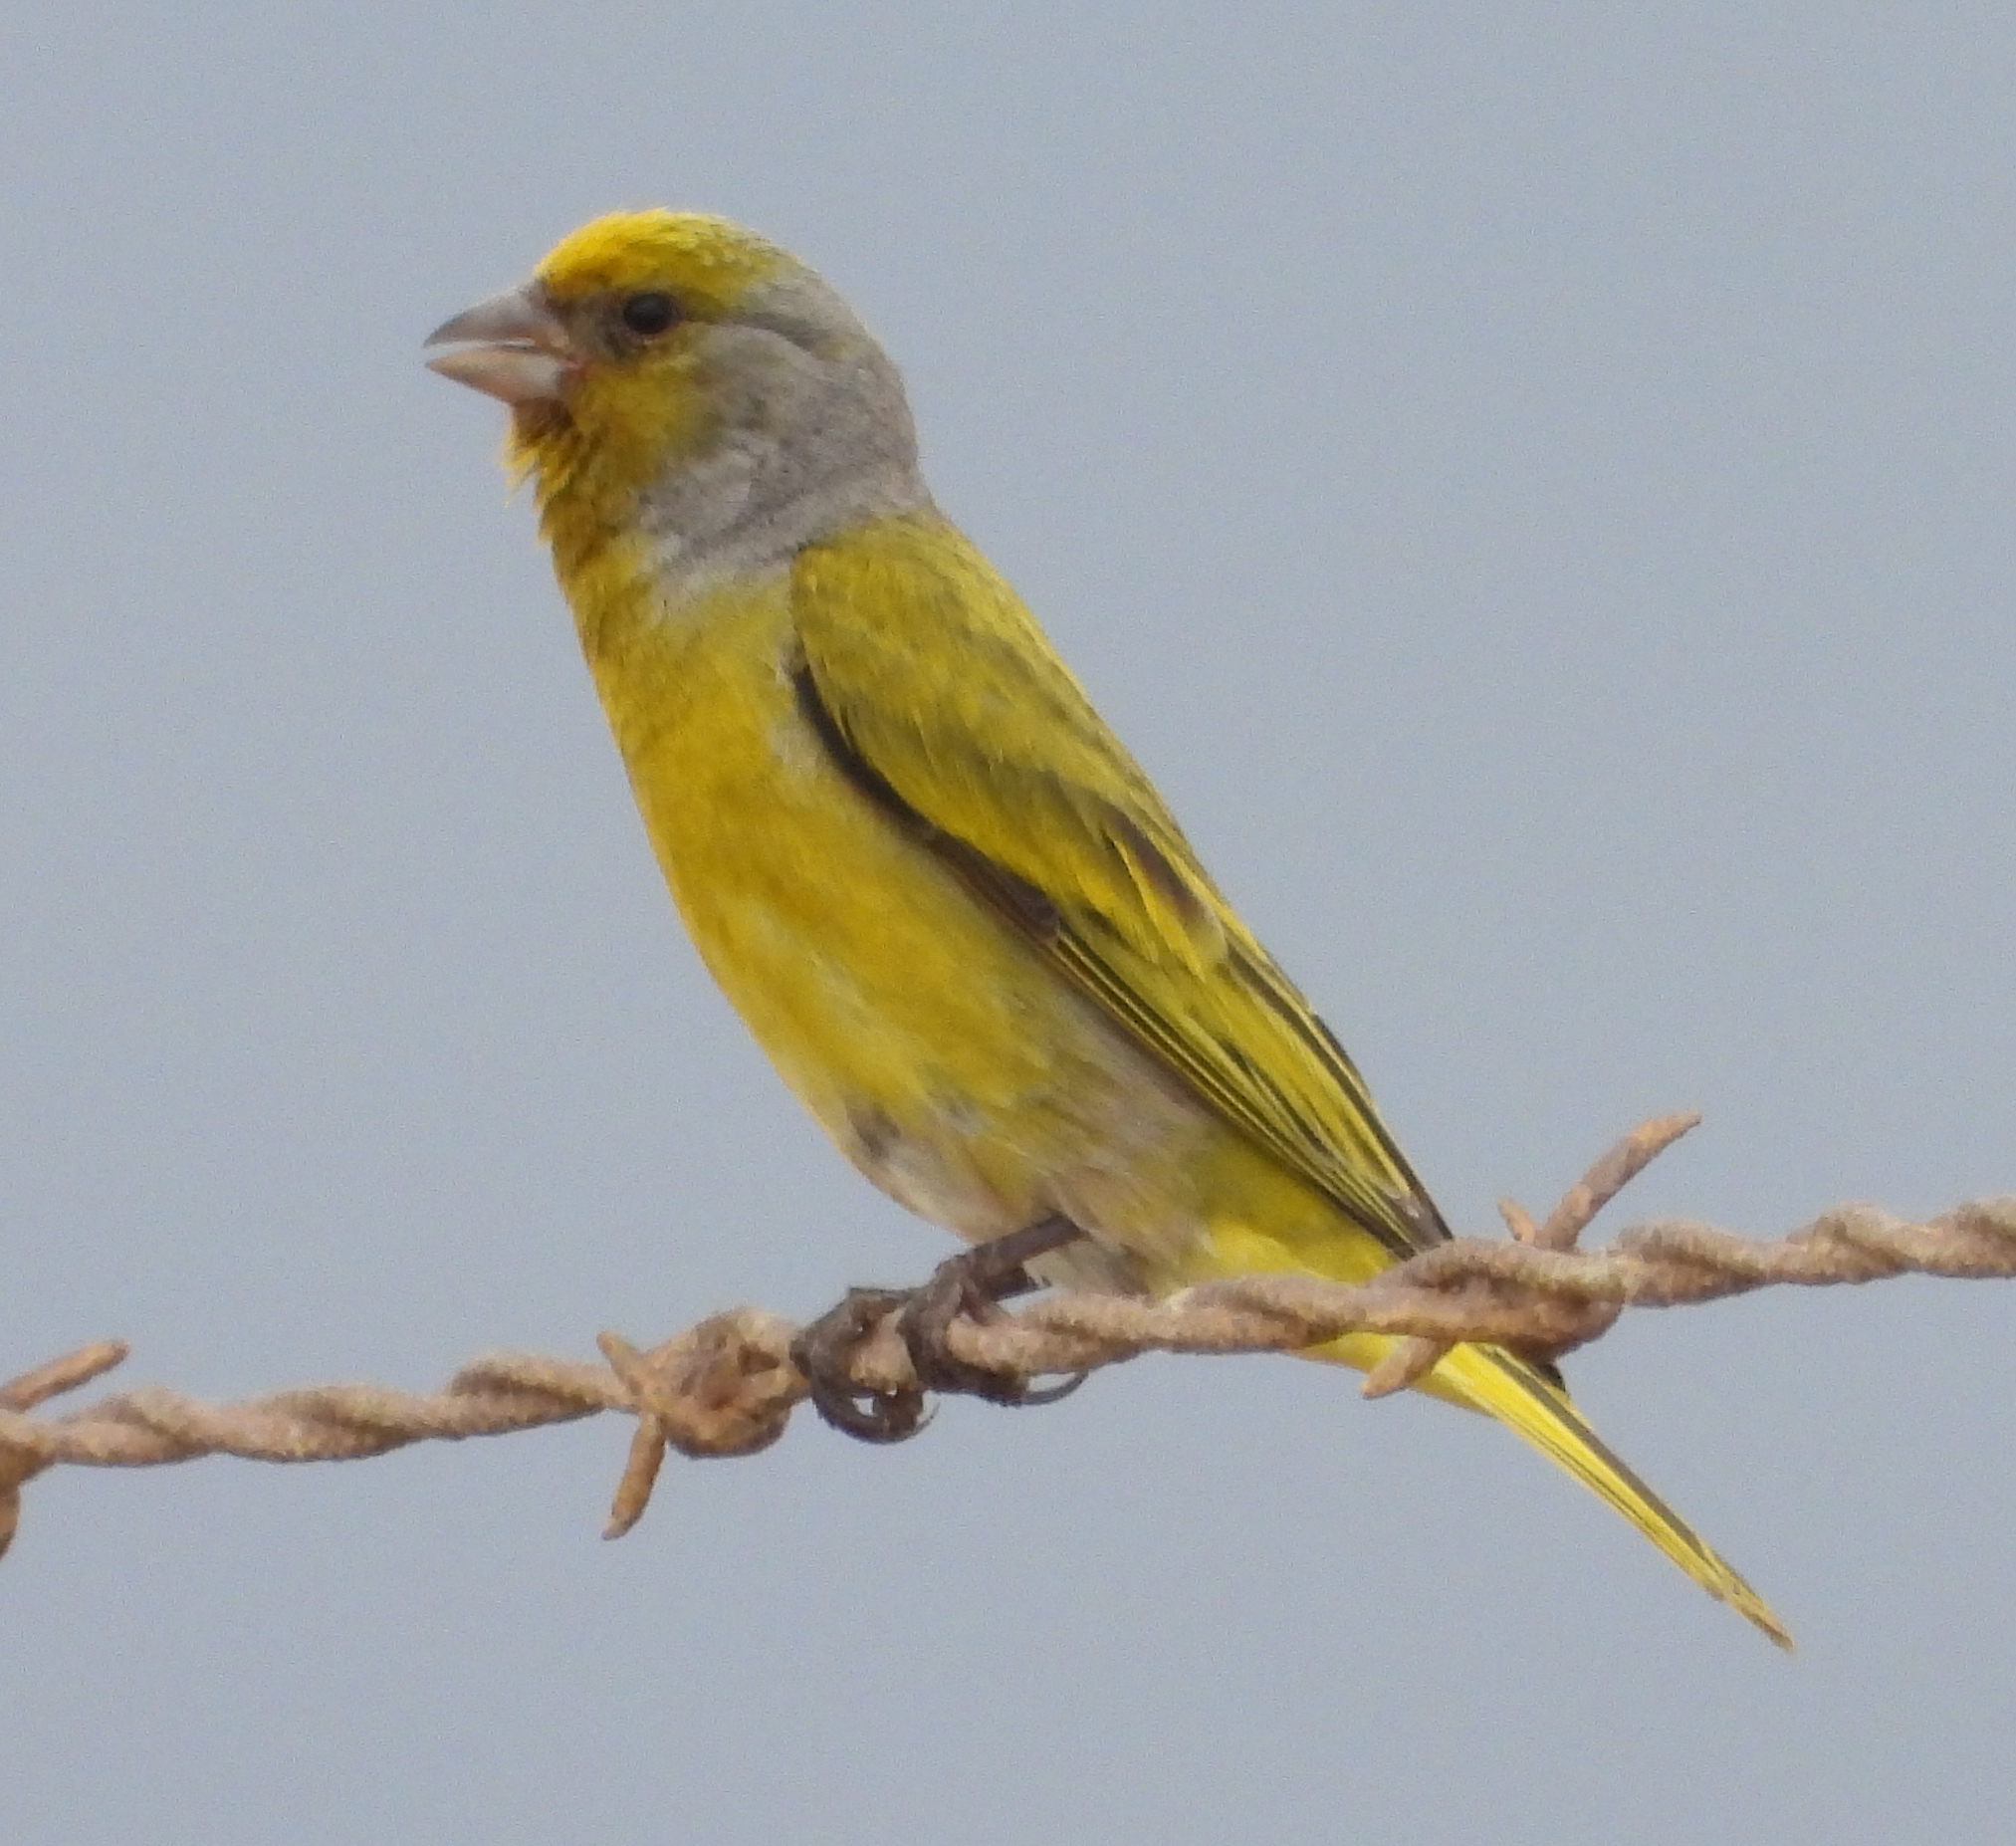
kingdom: Animalia
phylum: Chordata
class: Aves
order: Passeriformes
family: Fringillidae
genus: Serinus
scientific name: Serinus canicollis
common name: Cape canary
